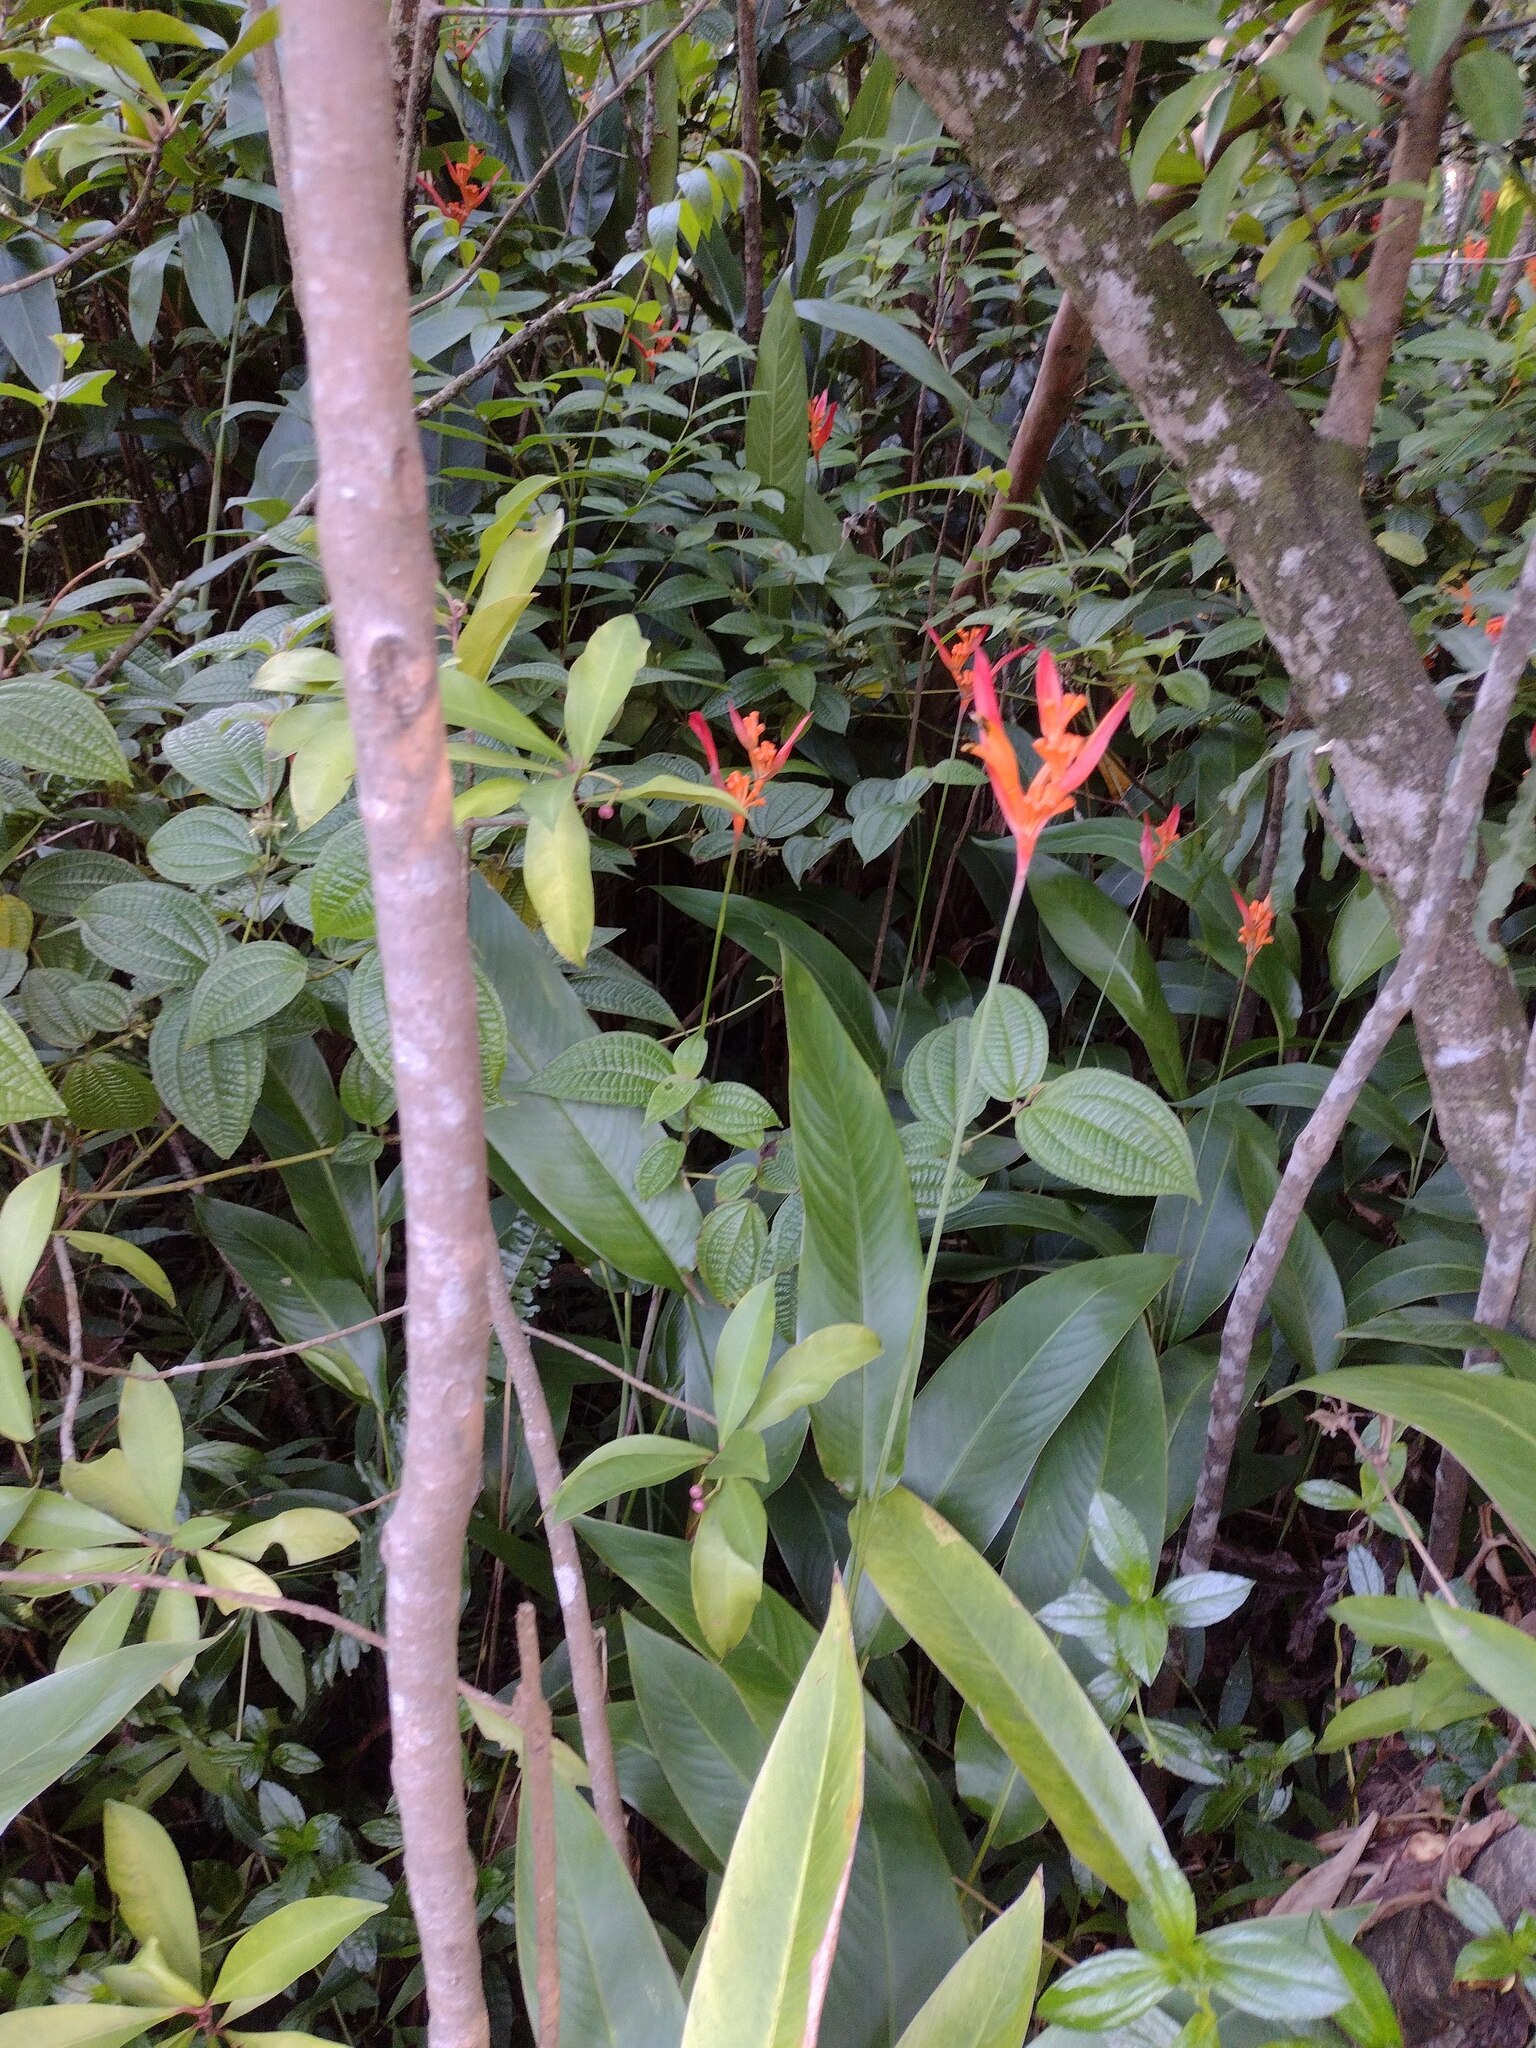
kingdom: Plantae
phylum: Tracheophyta
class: Liliopsida
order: Zingiberales
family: Heliconiaceae
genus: Heliconia
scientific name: Heliconia psittacorum
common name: Parrot's-flower
